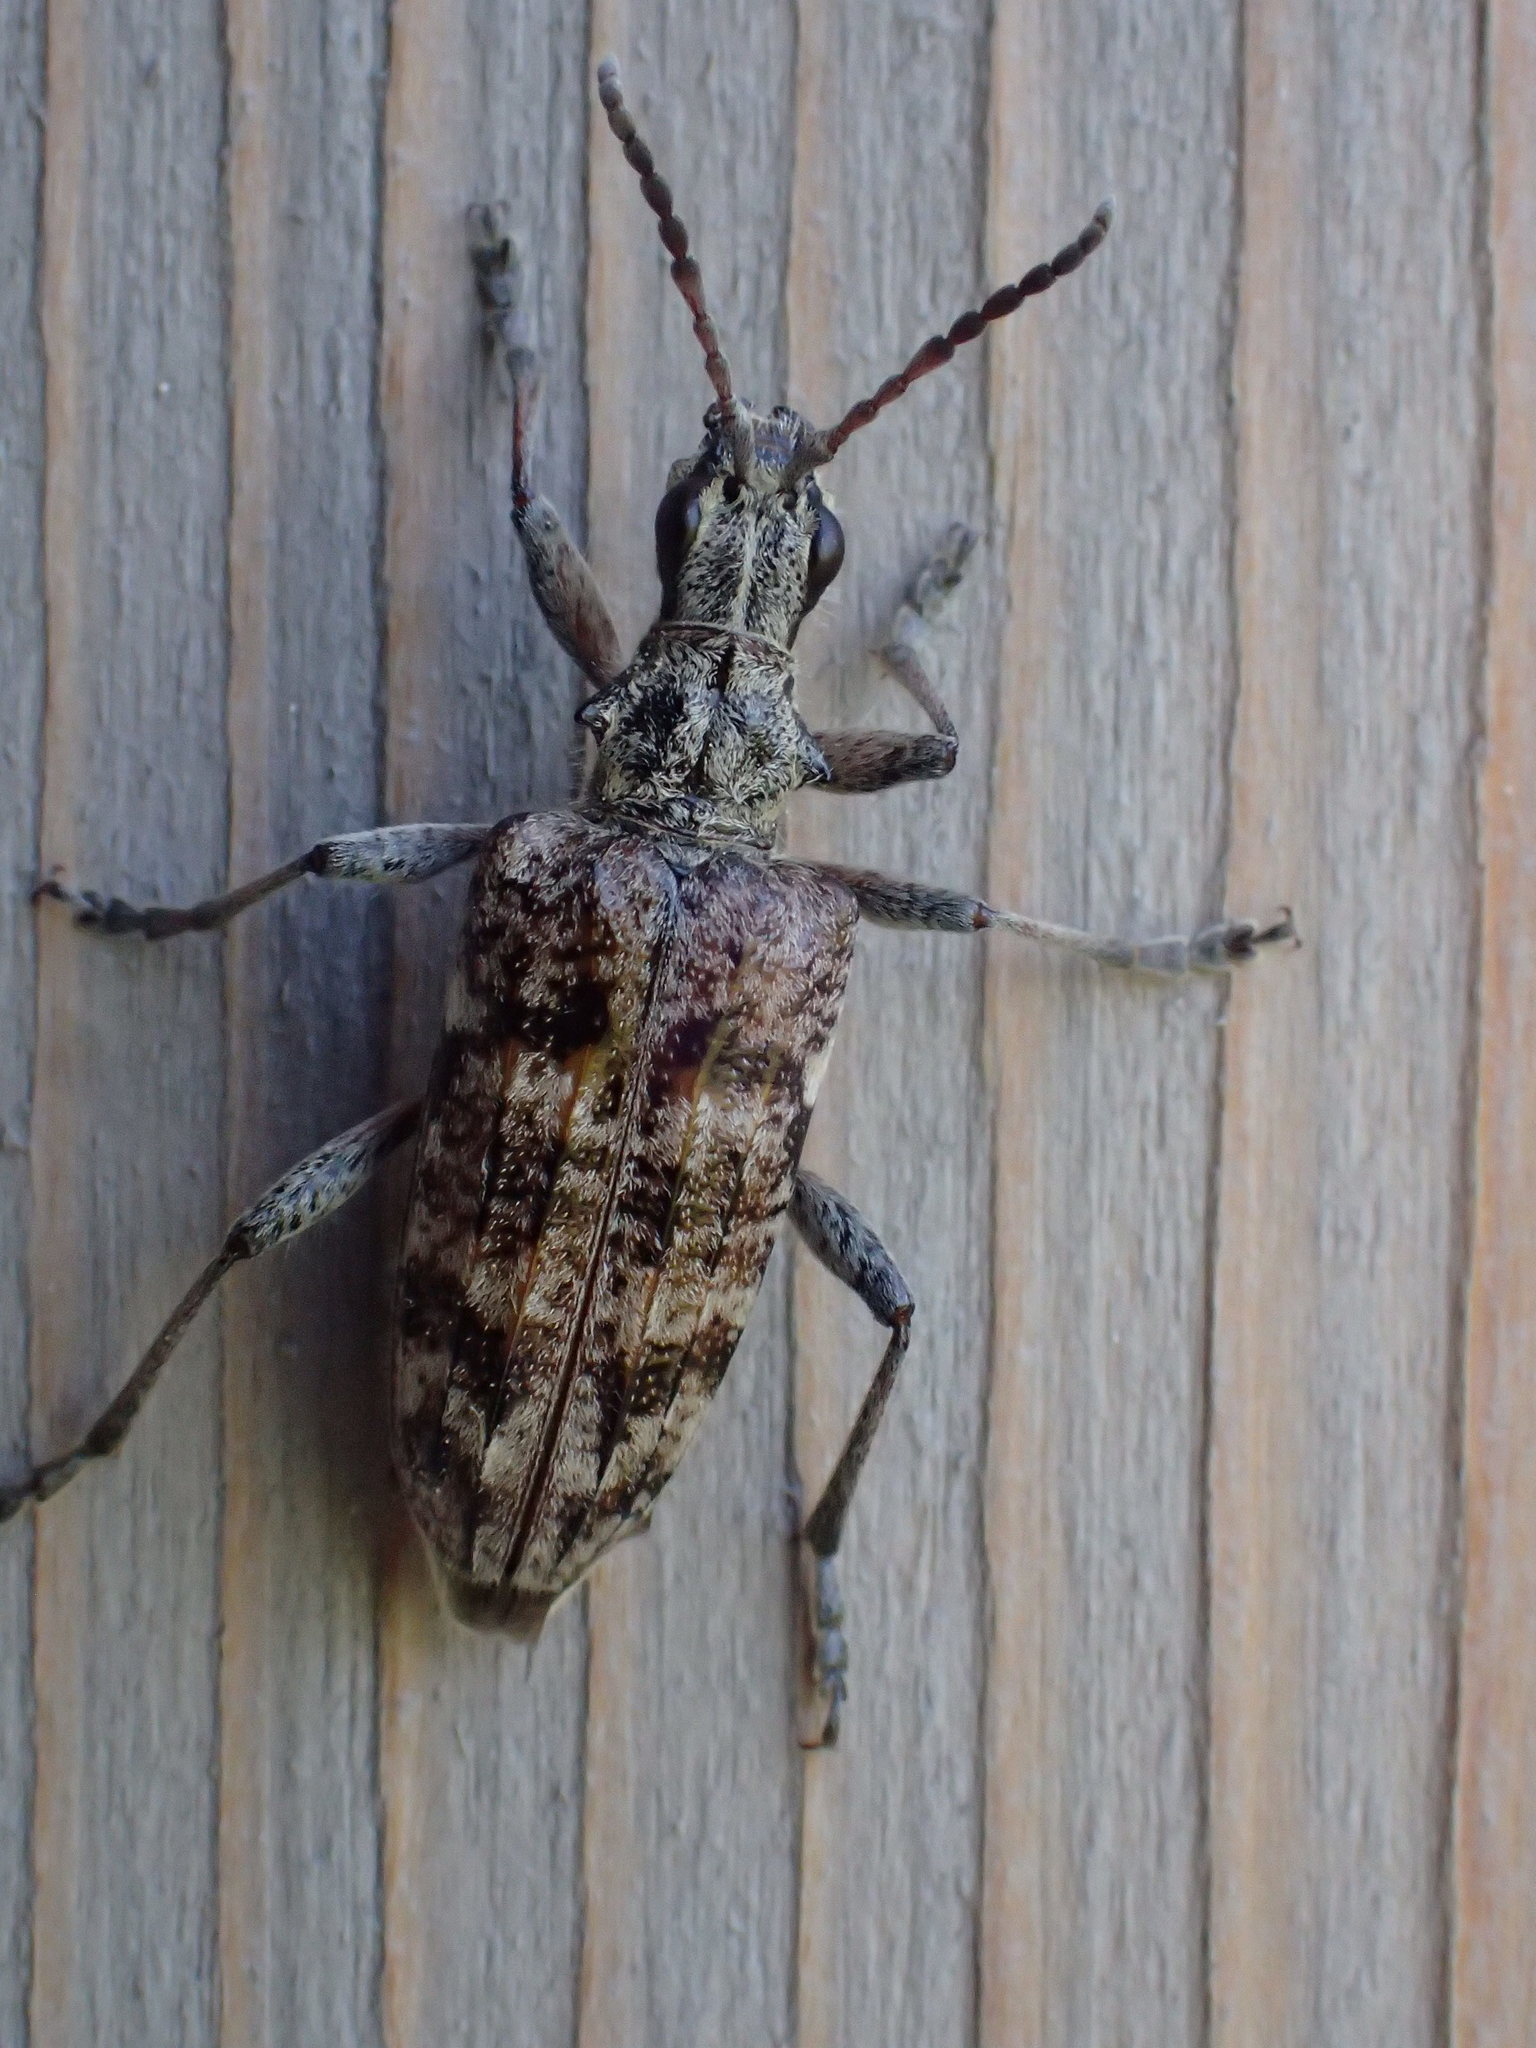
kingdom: Animalia
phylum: Arthropoda
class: Insecta
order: Coleoptera
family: Cerambycidae
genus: Rhagium
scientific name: Rhagium inquisitor
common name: Ribbed pine borer
